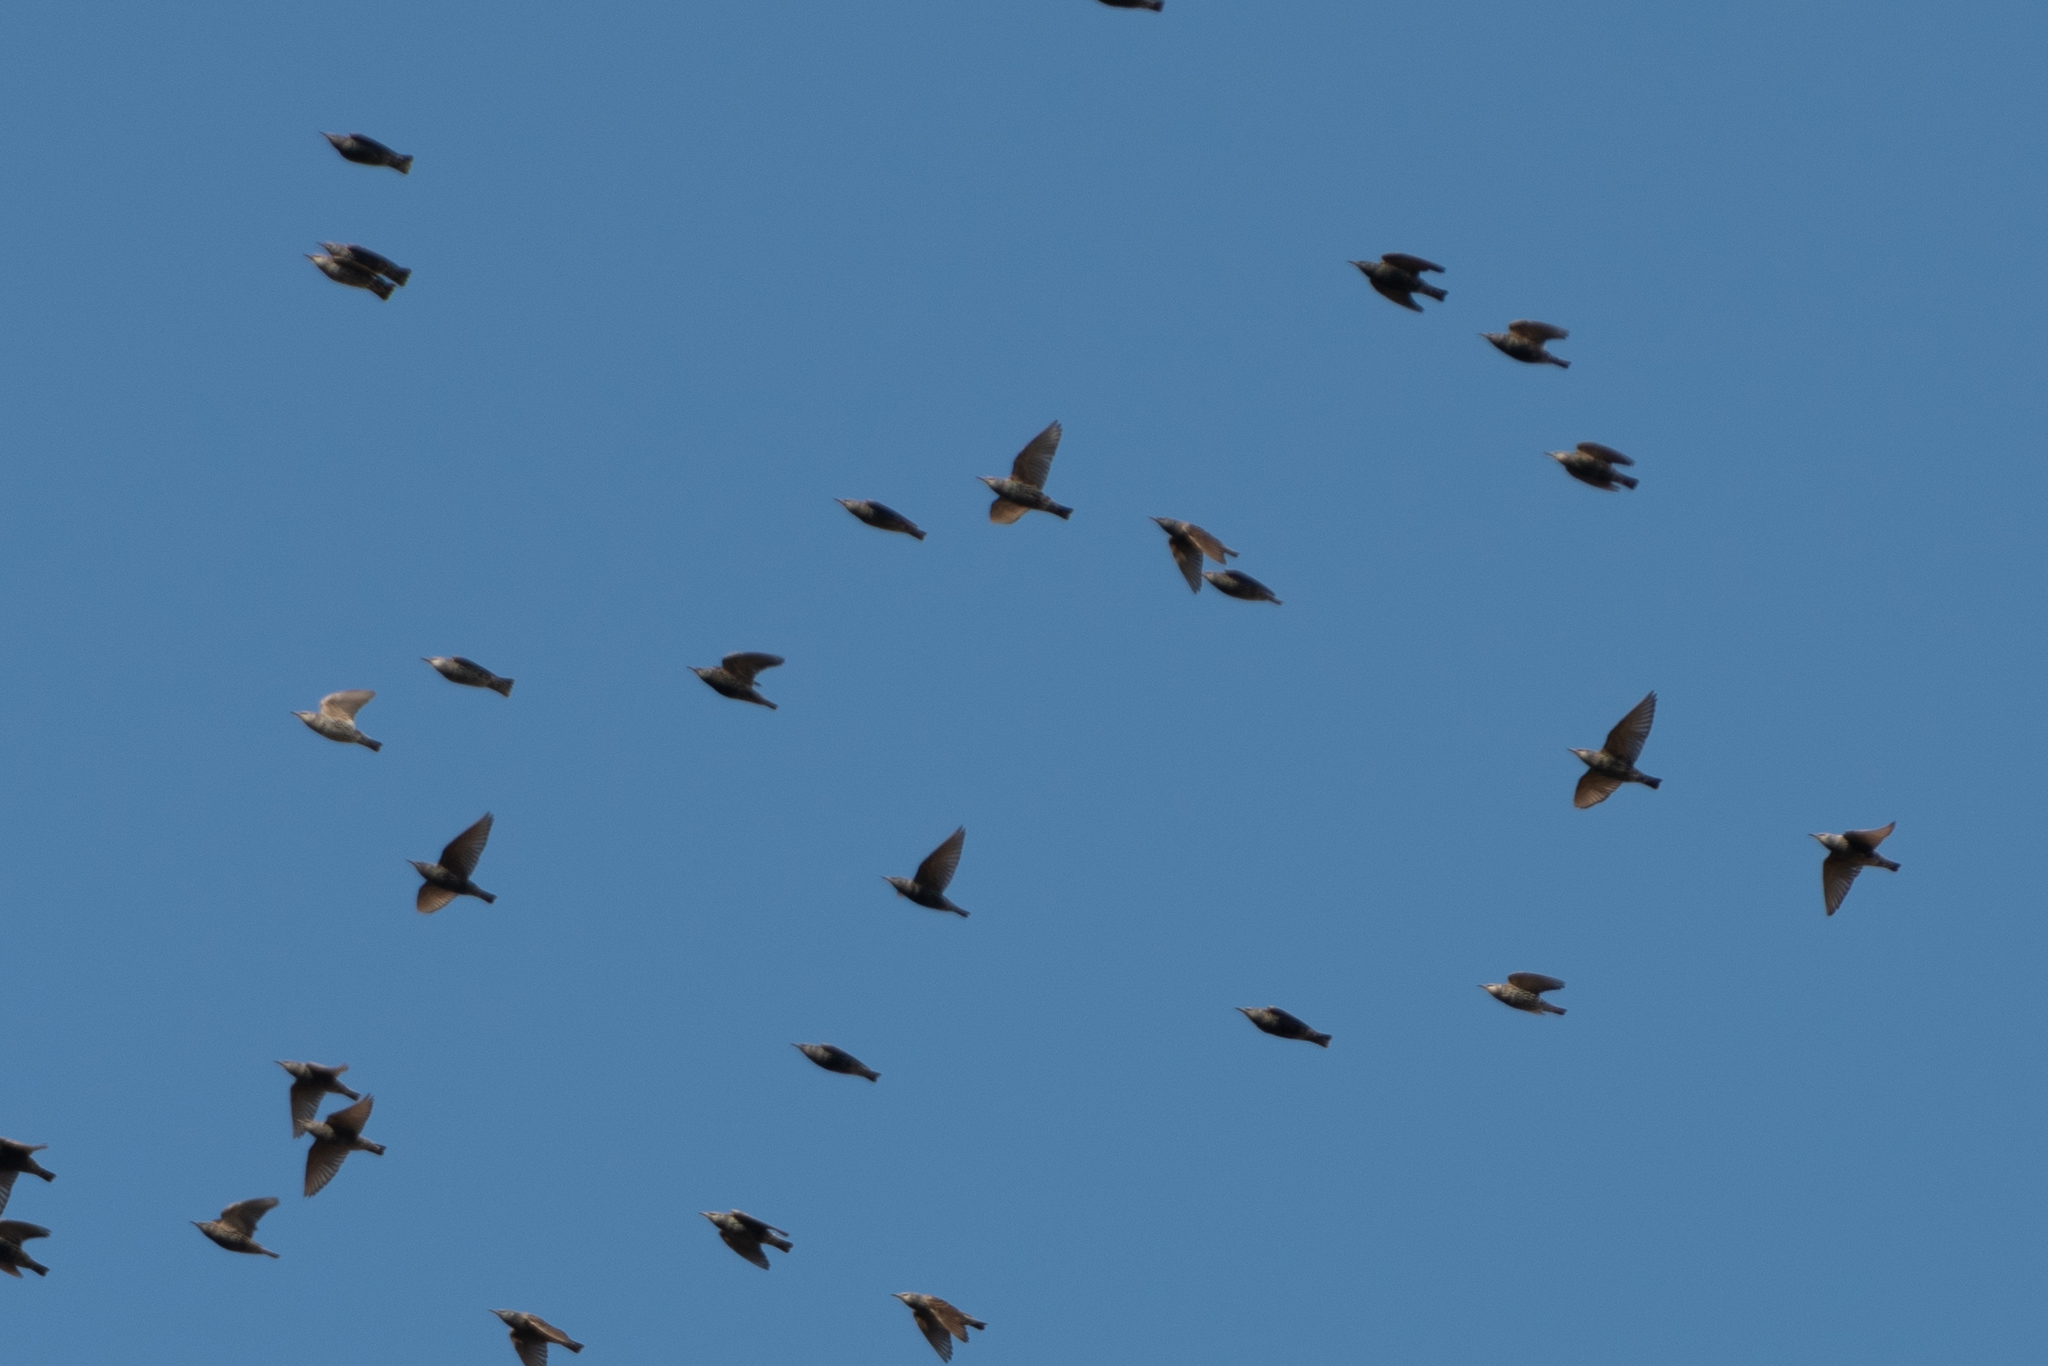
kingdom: Animalia
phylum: Chordata
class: Aves
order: Passeriformes
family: Sturnidae
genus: Sturnus
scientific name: Sturnus vulgaris
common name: Common starling
